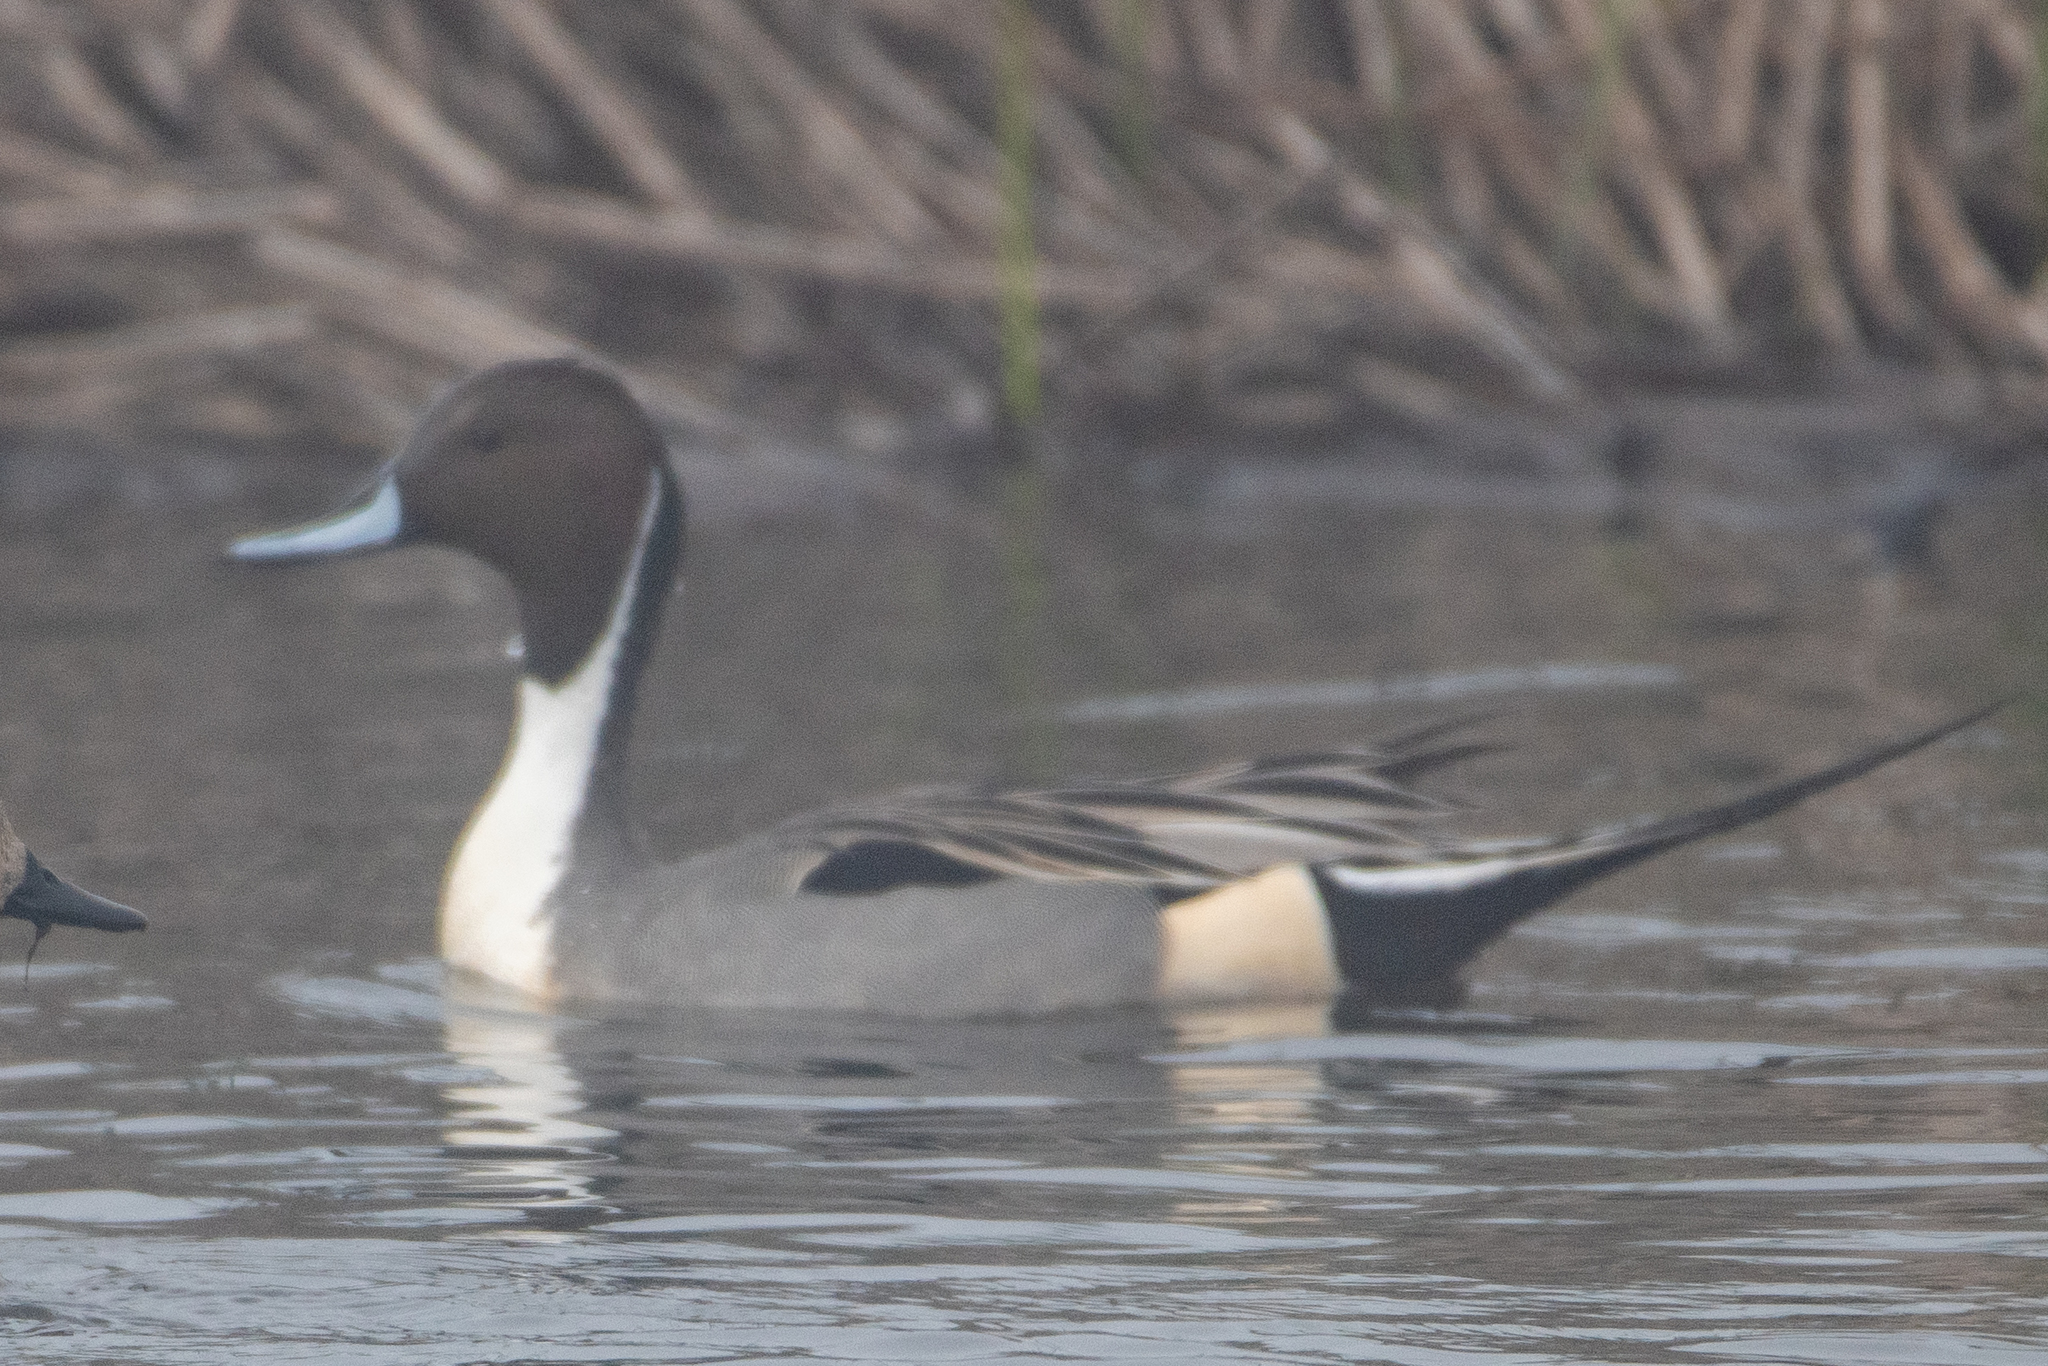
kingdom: Animalia
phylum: Chordata
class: Aves
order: Anseriformes
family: Anatidae
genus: Anas
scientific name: Anas acuta
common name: Northern pintail
